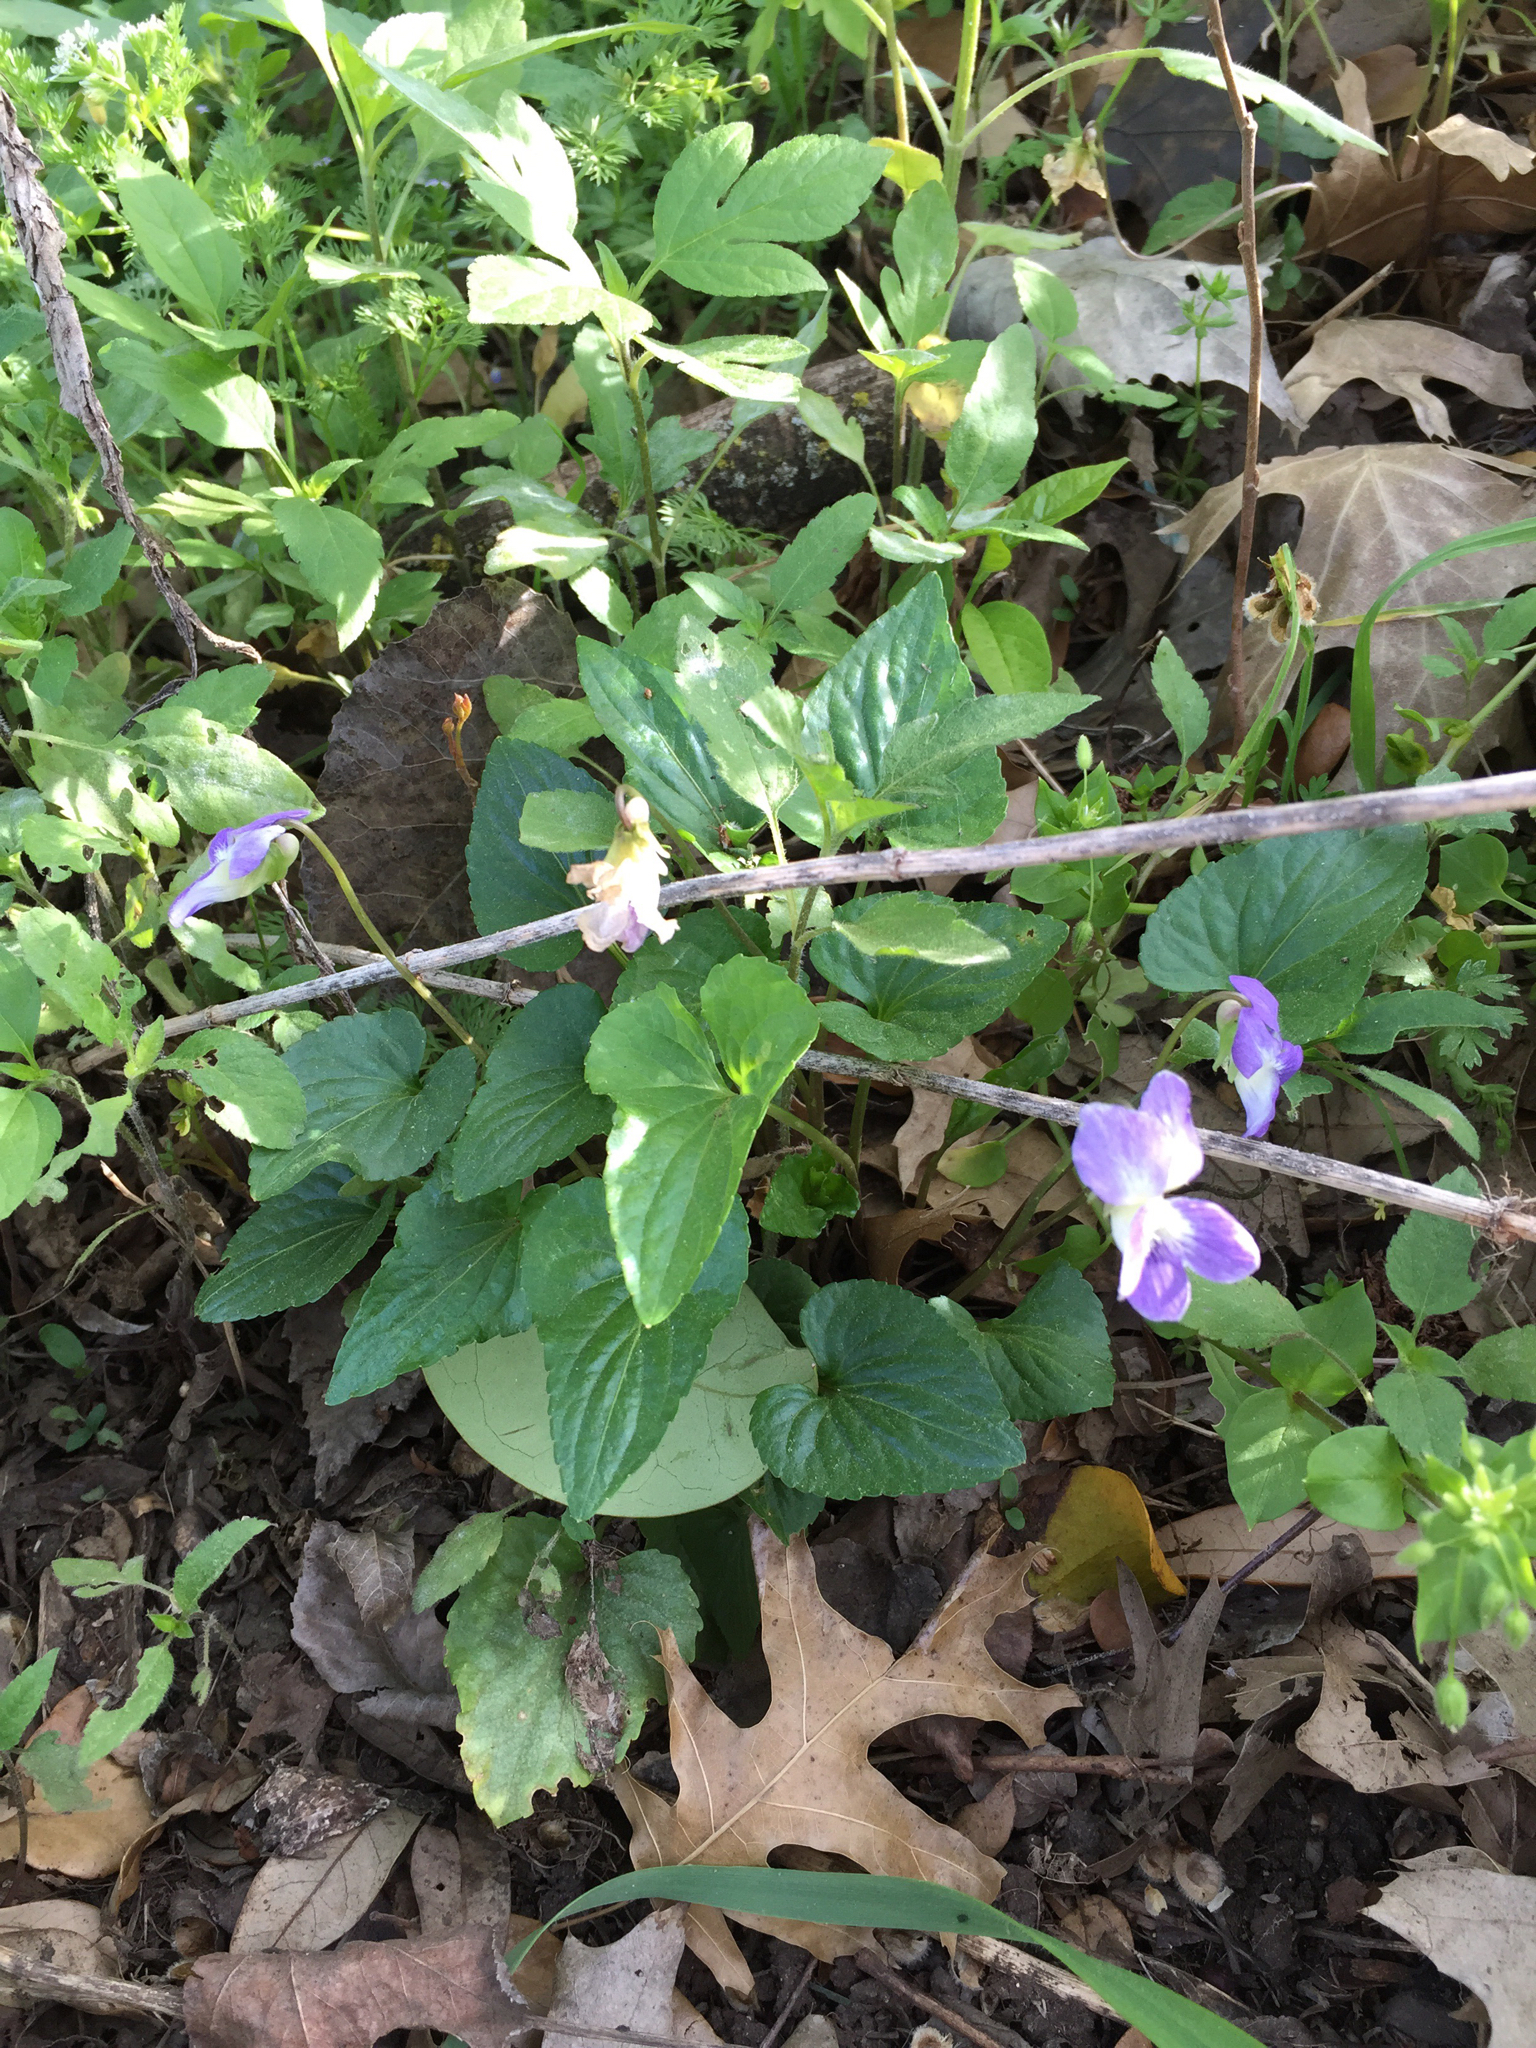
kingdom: Plantae
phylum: Tracheophyta
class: Magnoliopsida
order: Malpighiales
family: Violaceae
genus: Viola
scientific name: Viola sororia
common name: Dooryard violet
